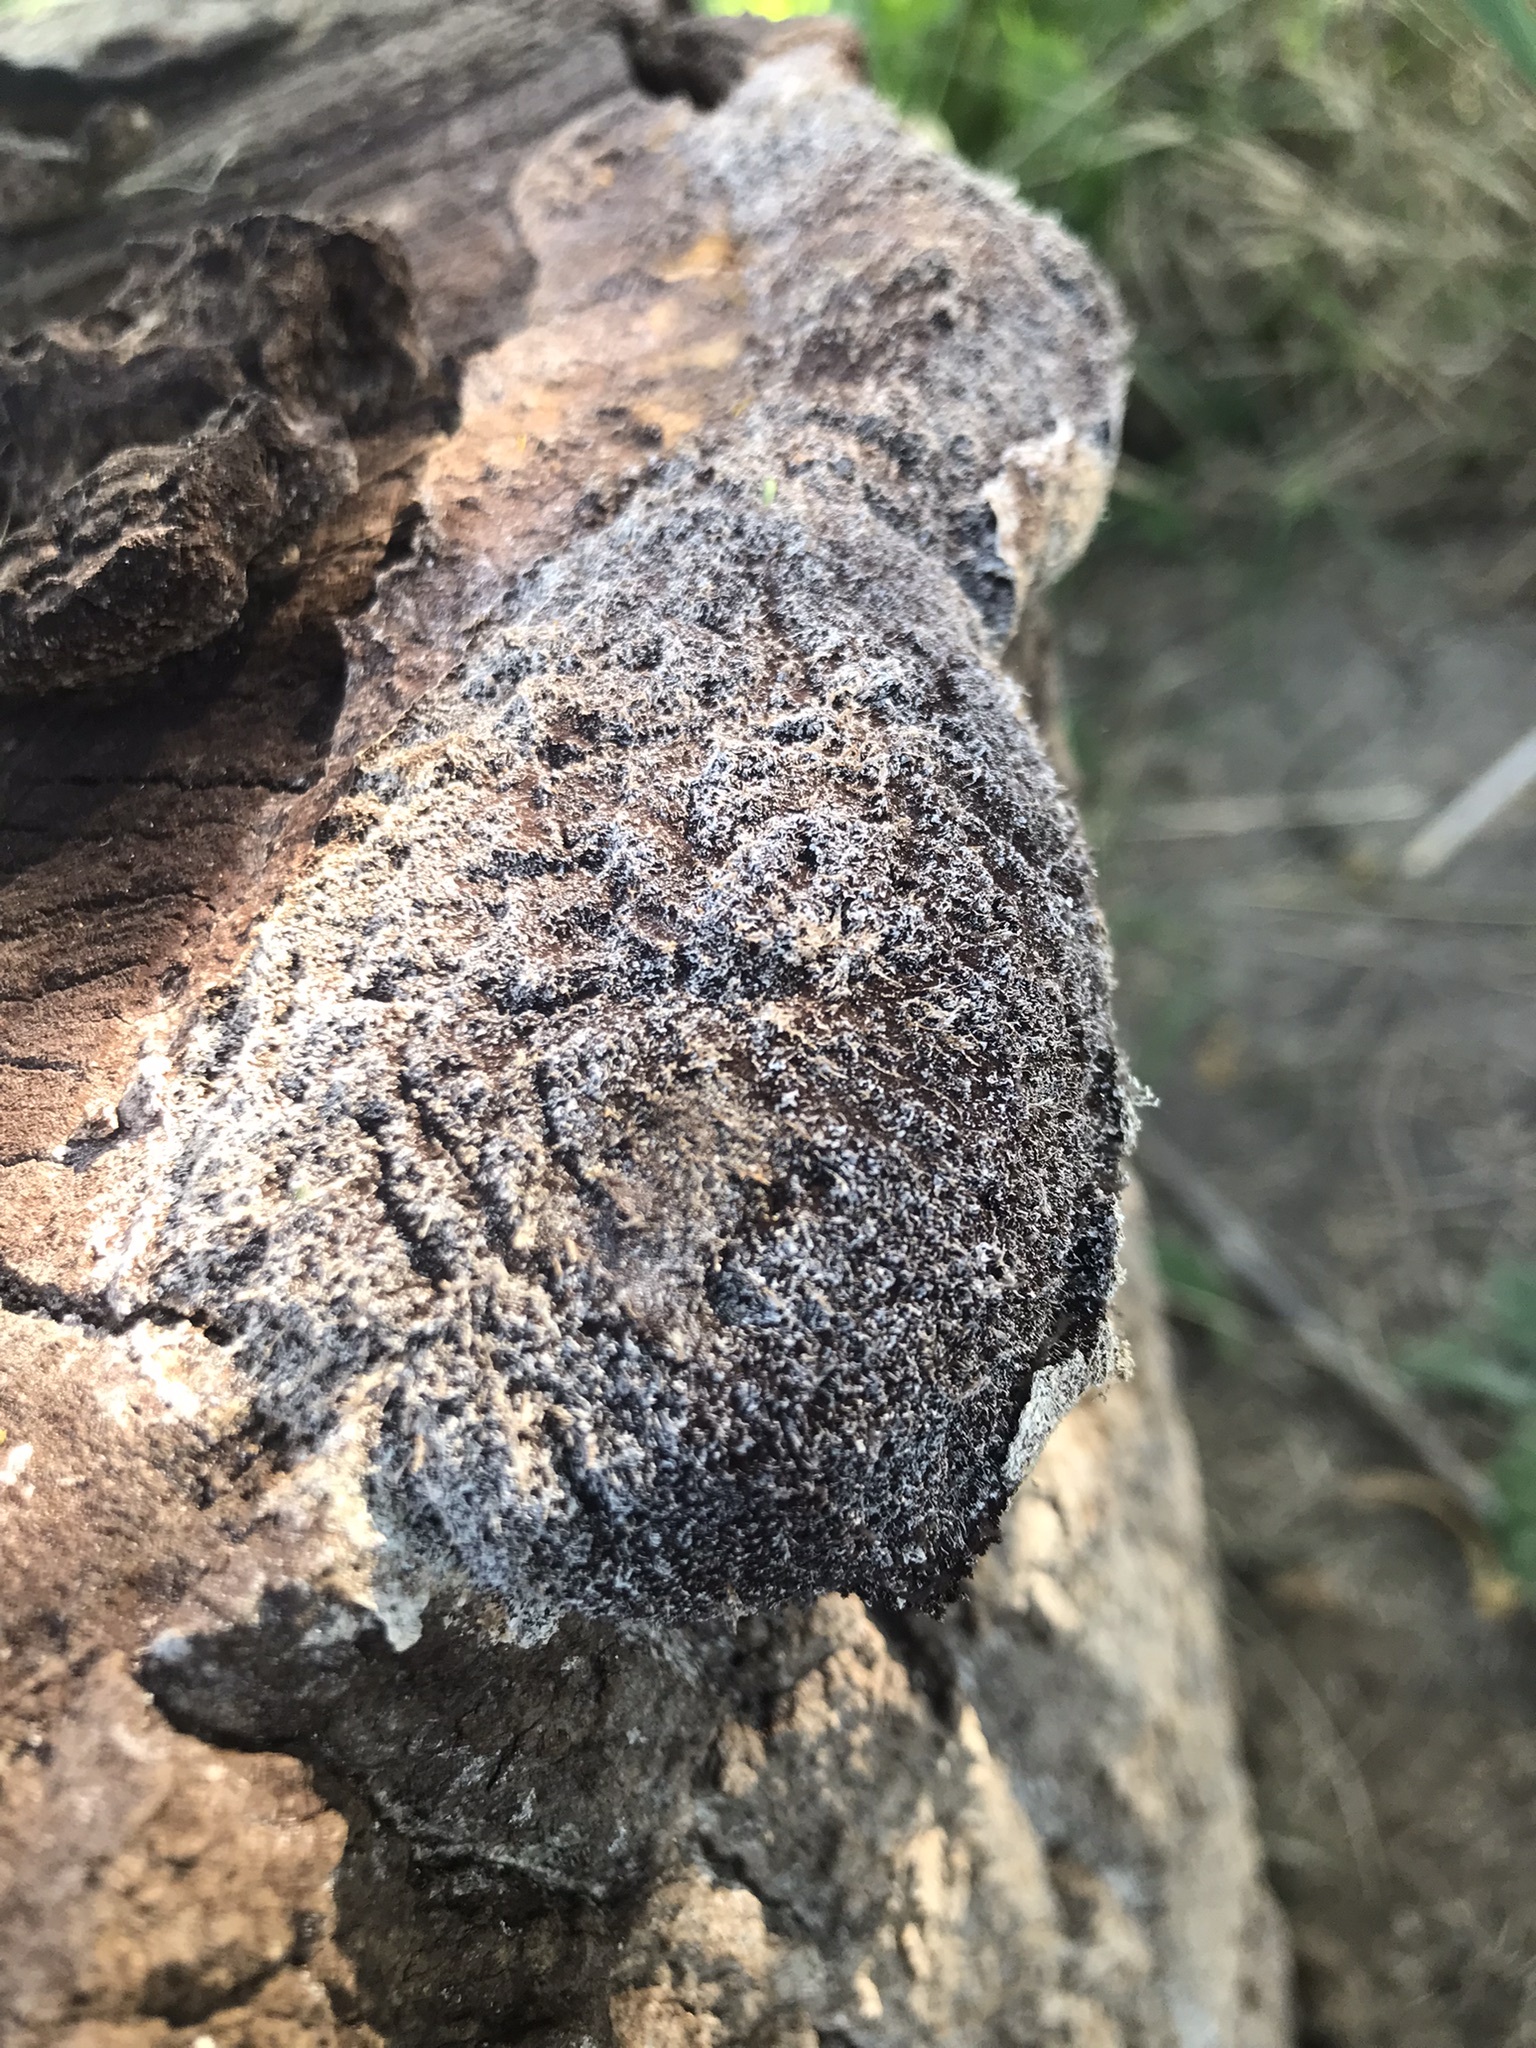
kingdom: Protozoa
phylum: Mycetozoa
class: Myxomycetes
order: Physarales
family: Physaraceae
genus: Fuligo
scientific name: Fuligo septica
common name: Dog vomit slime mold
